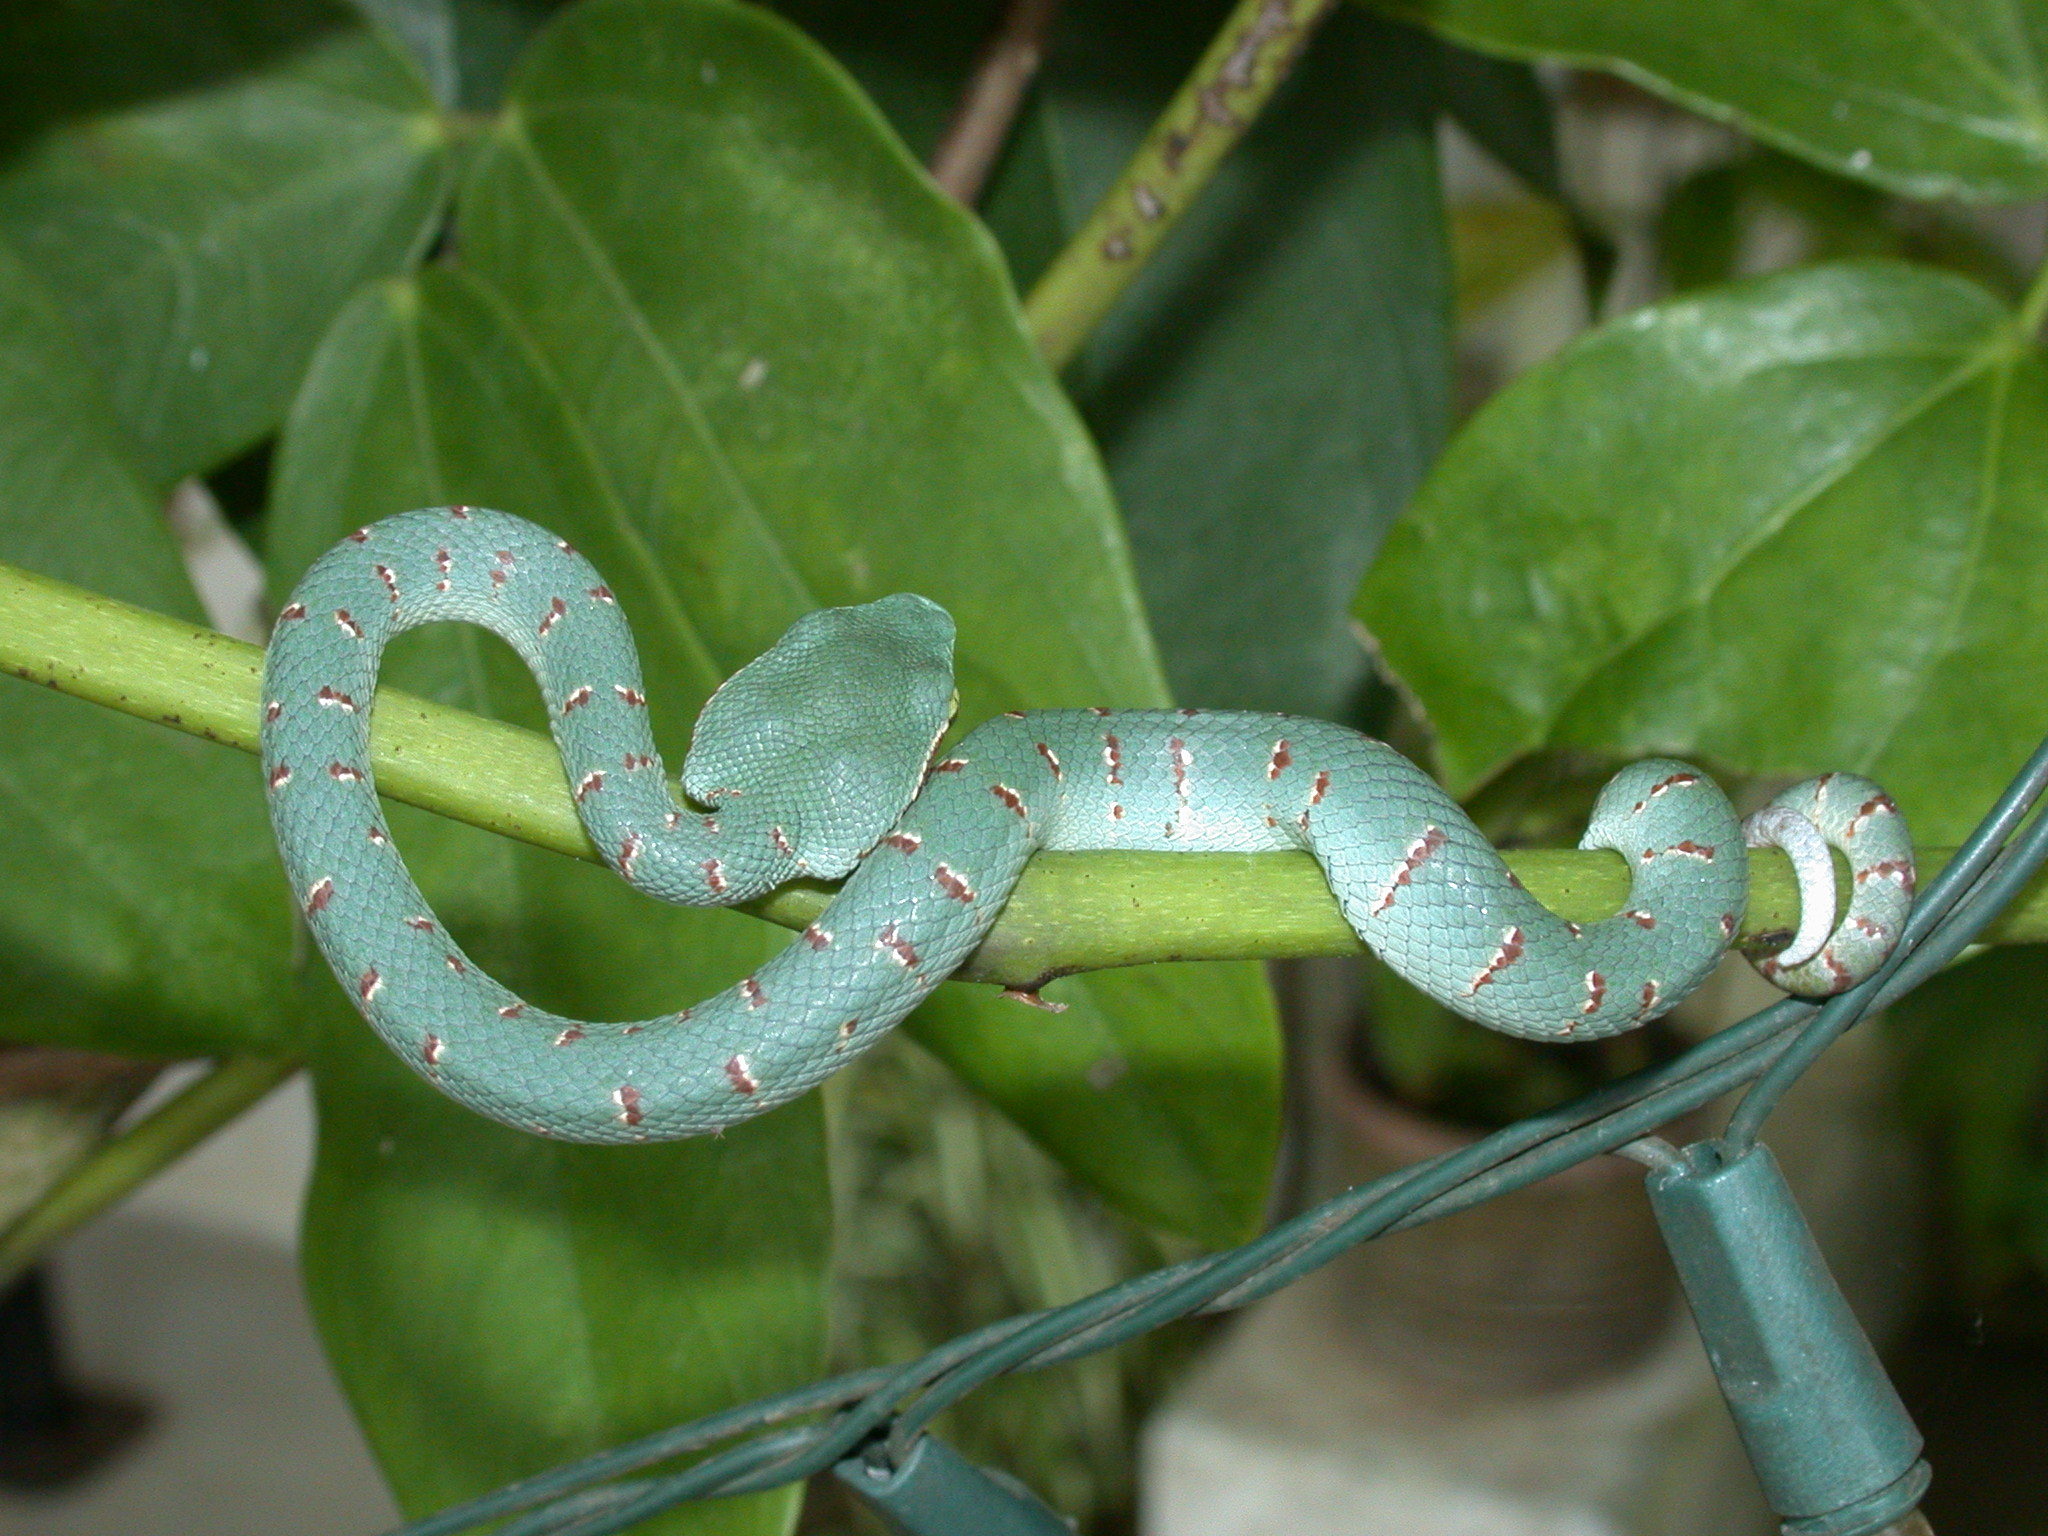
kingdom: Animalia
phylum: Chordata
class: Squamata
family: Viperidae
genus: Tropidolaemus
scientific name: Tropidolaemus wagleri
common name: Wagler's palm viper
